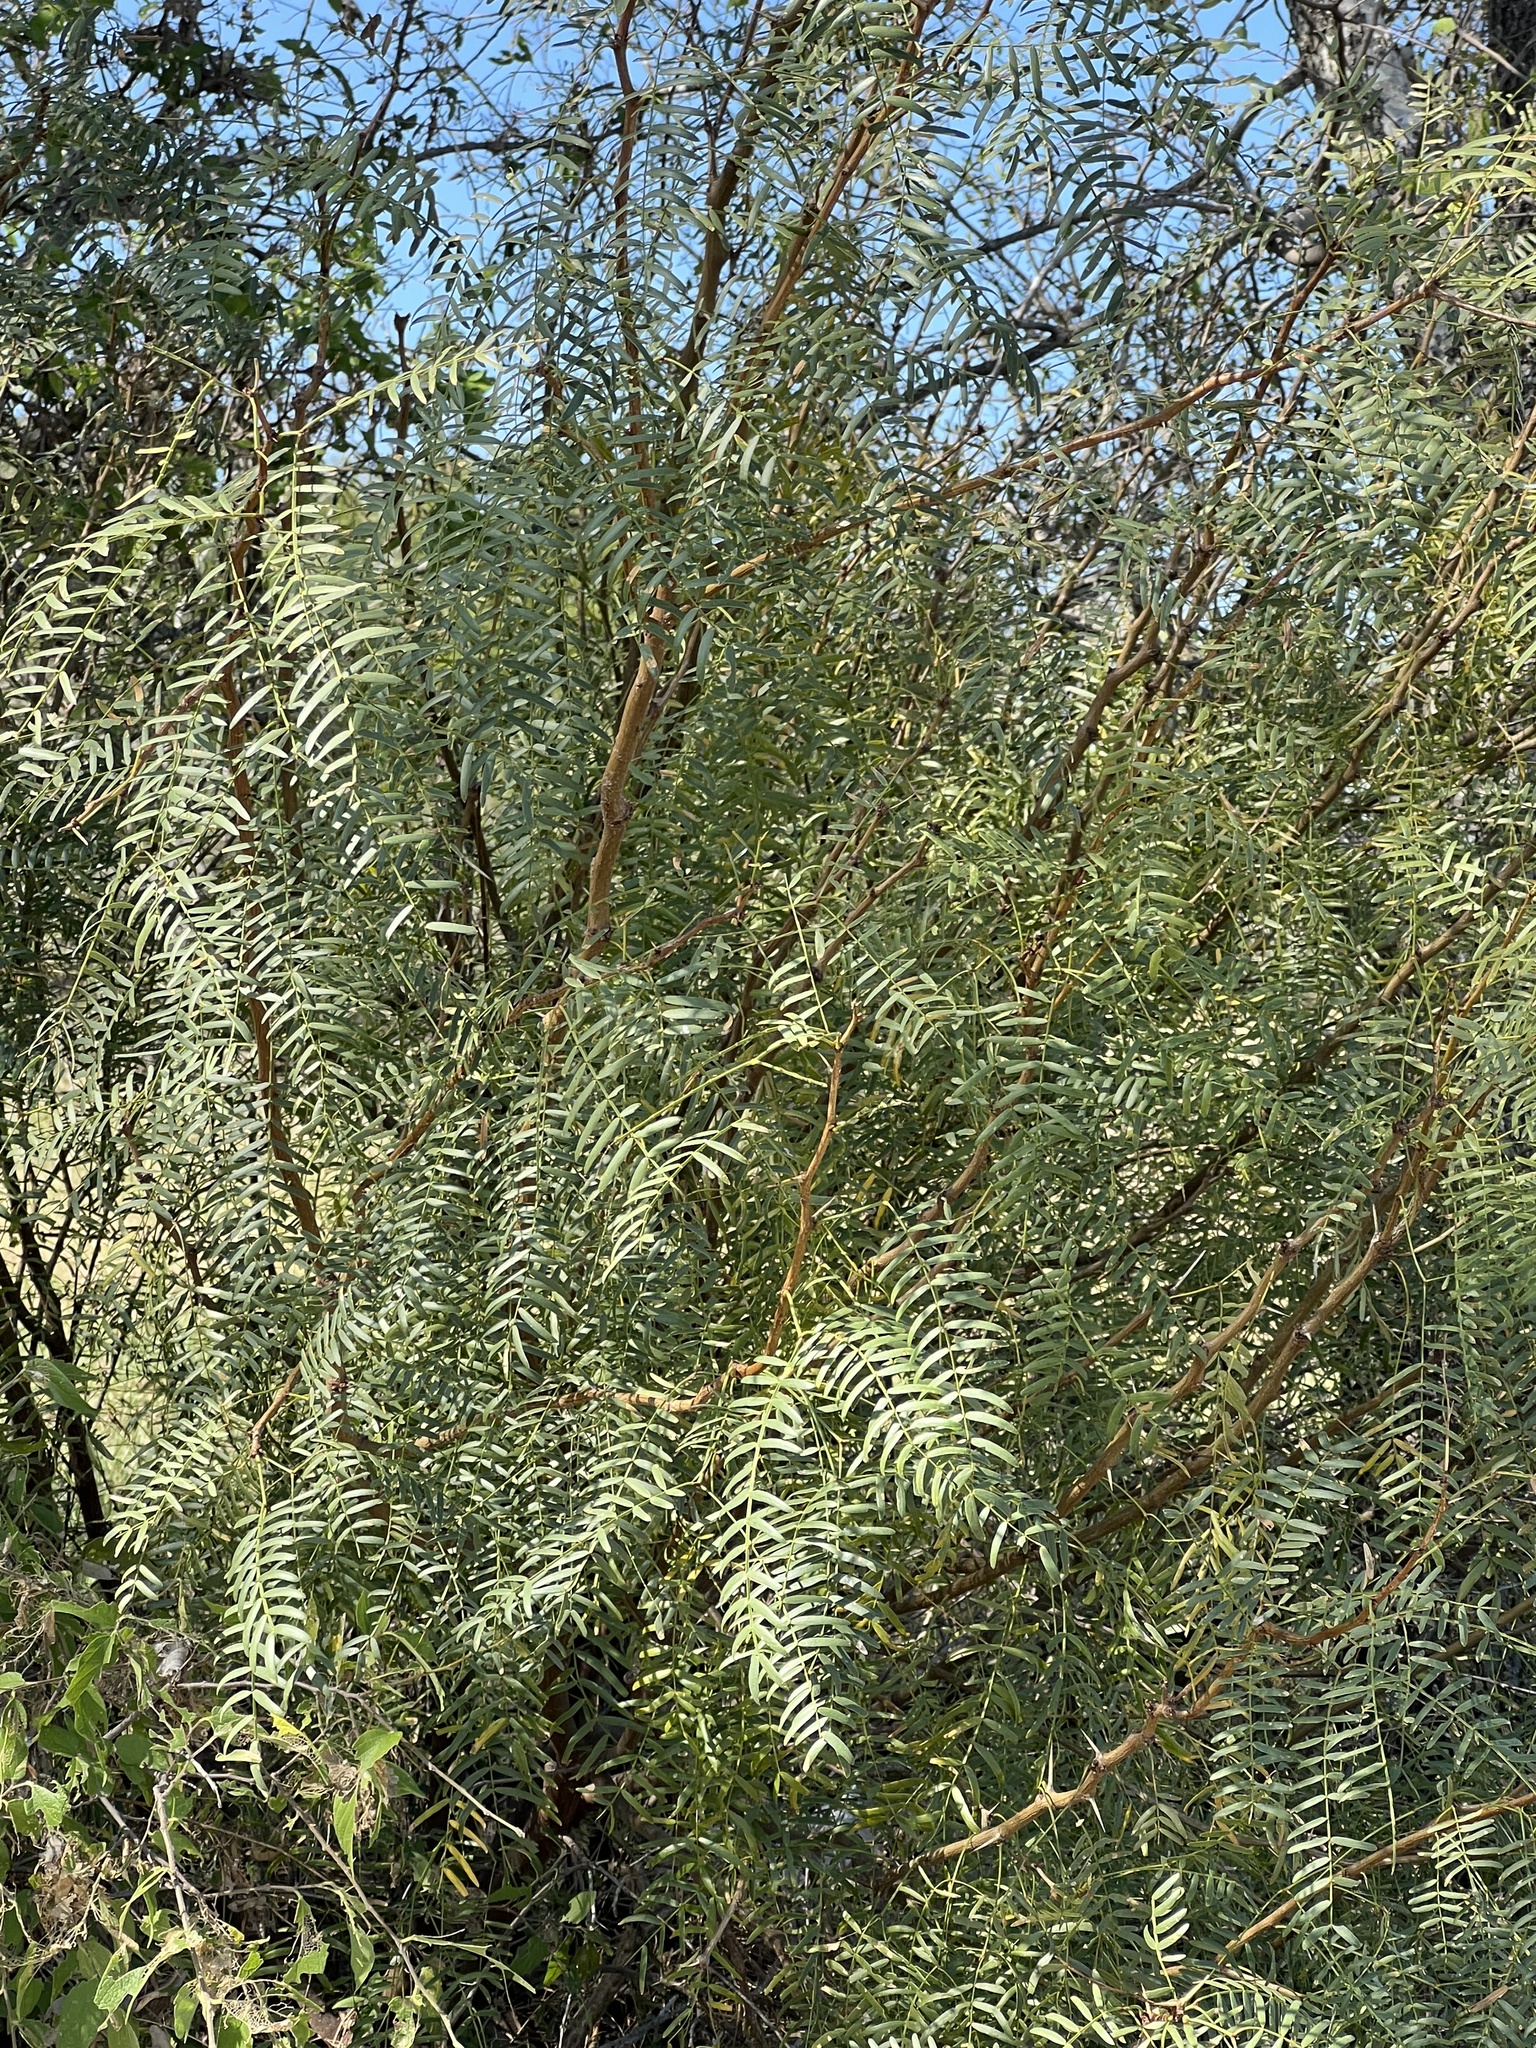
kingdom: Plantae
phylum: Tracheophyta
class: Magnoliopsida
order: Fabales
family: Fabaceae
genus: Prosopis
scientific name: Prosopis glandulosa
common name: Honey mesquite
